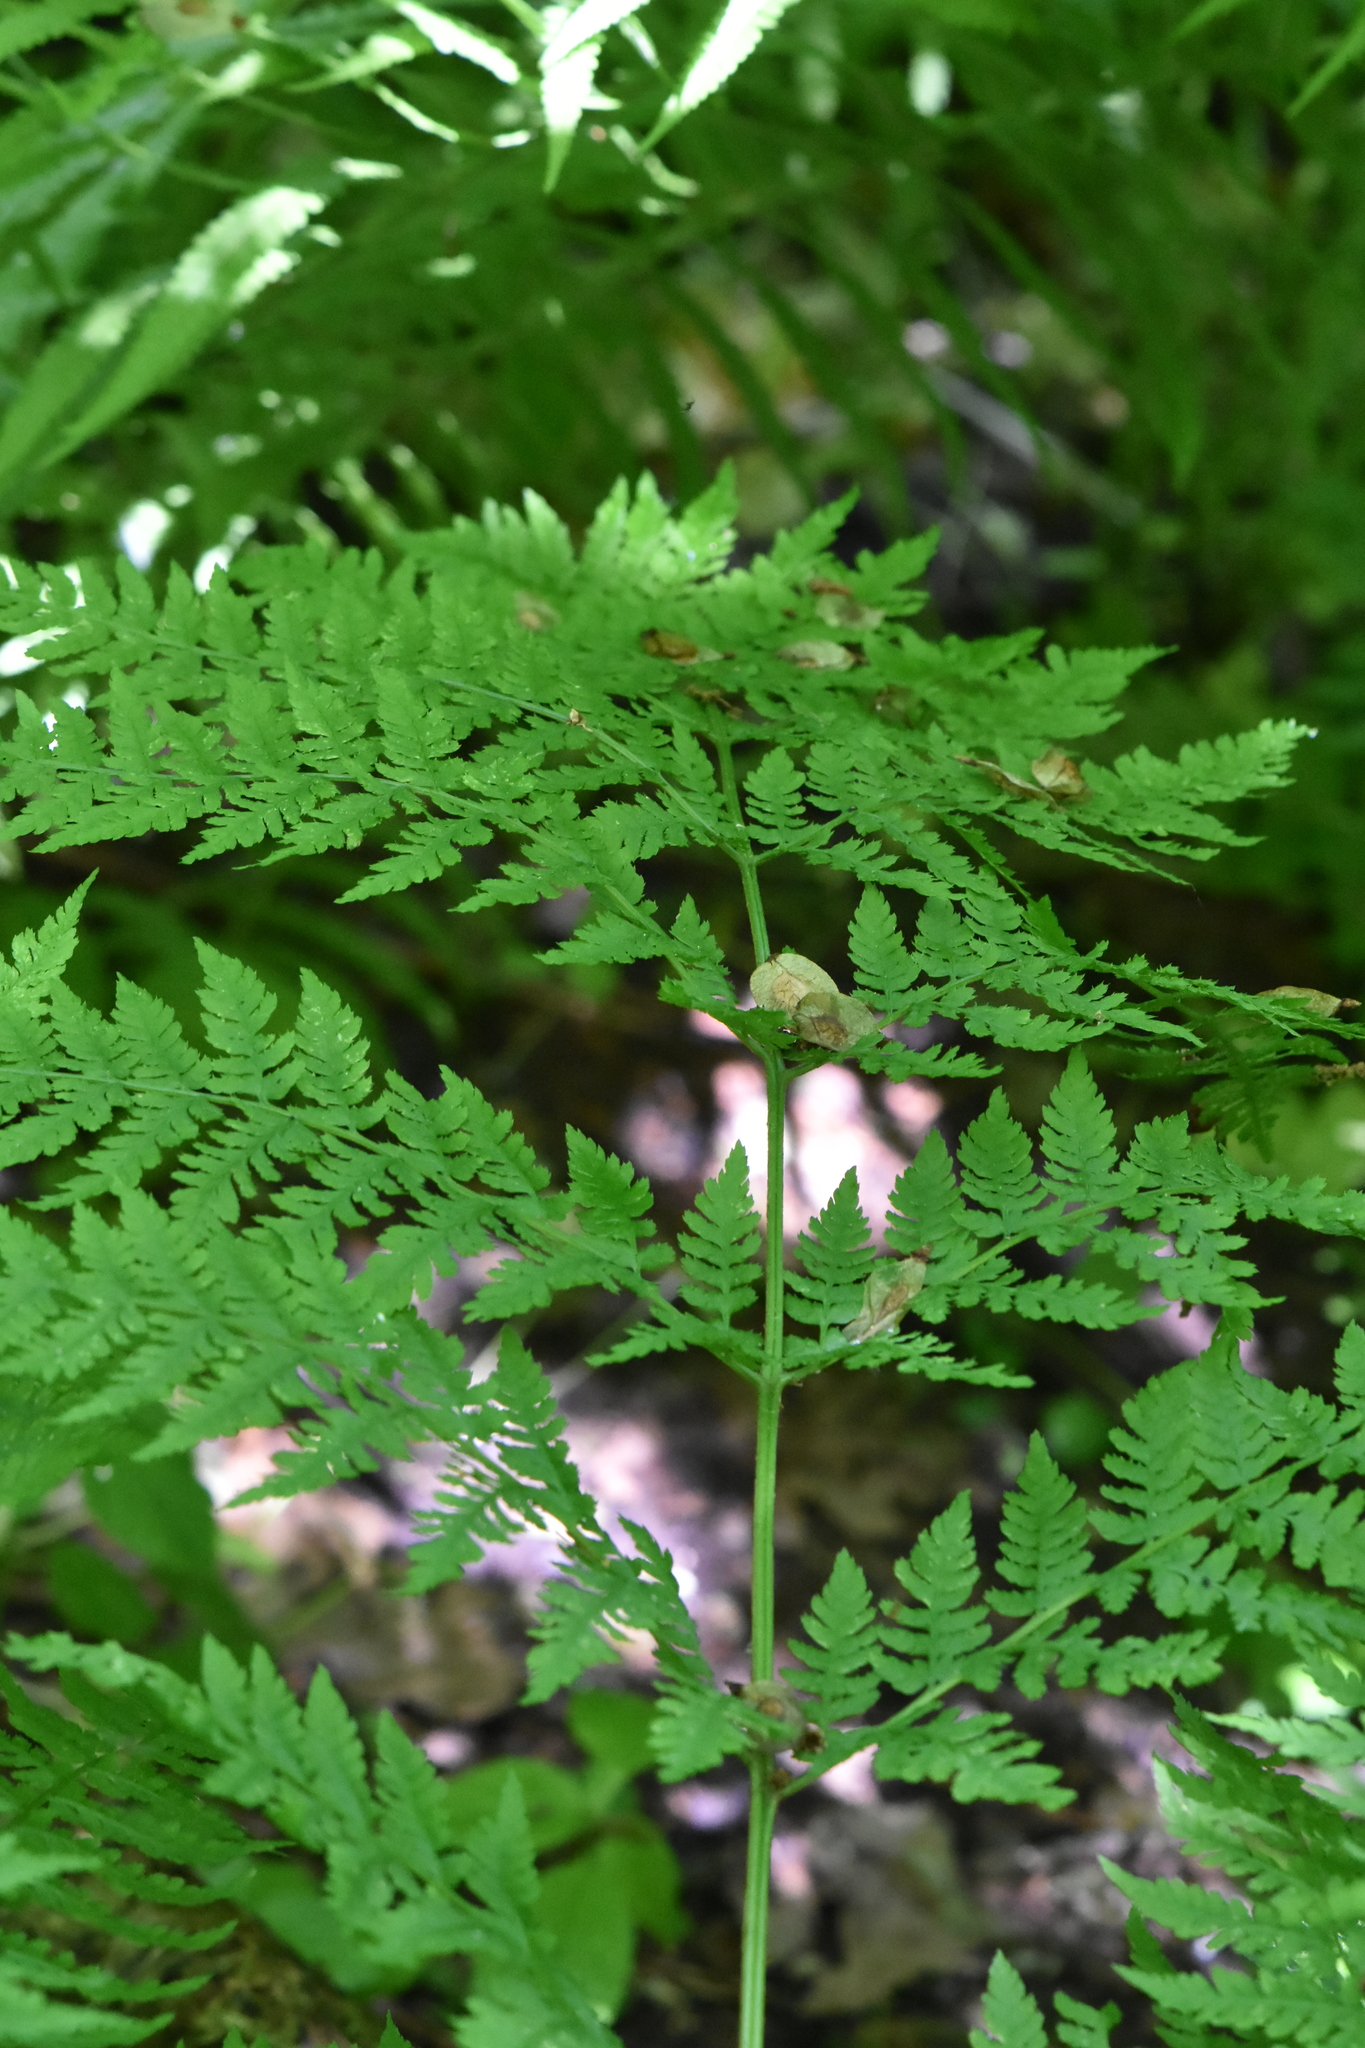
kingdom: Plantae
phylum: Tracheophyta
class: Polypodiopsida
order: Polypodiales
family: Dryopteridaceae
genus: Dryopteris
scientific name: Dryopteris expansa
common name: Northern buckler fern
